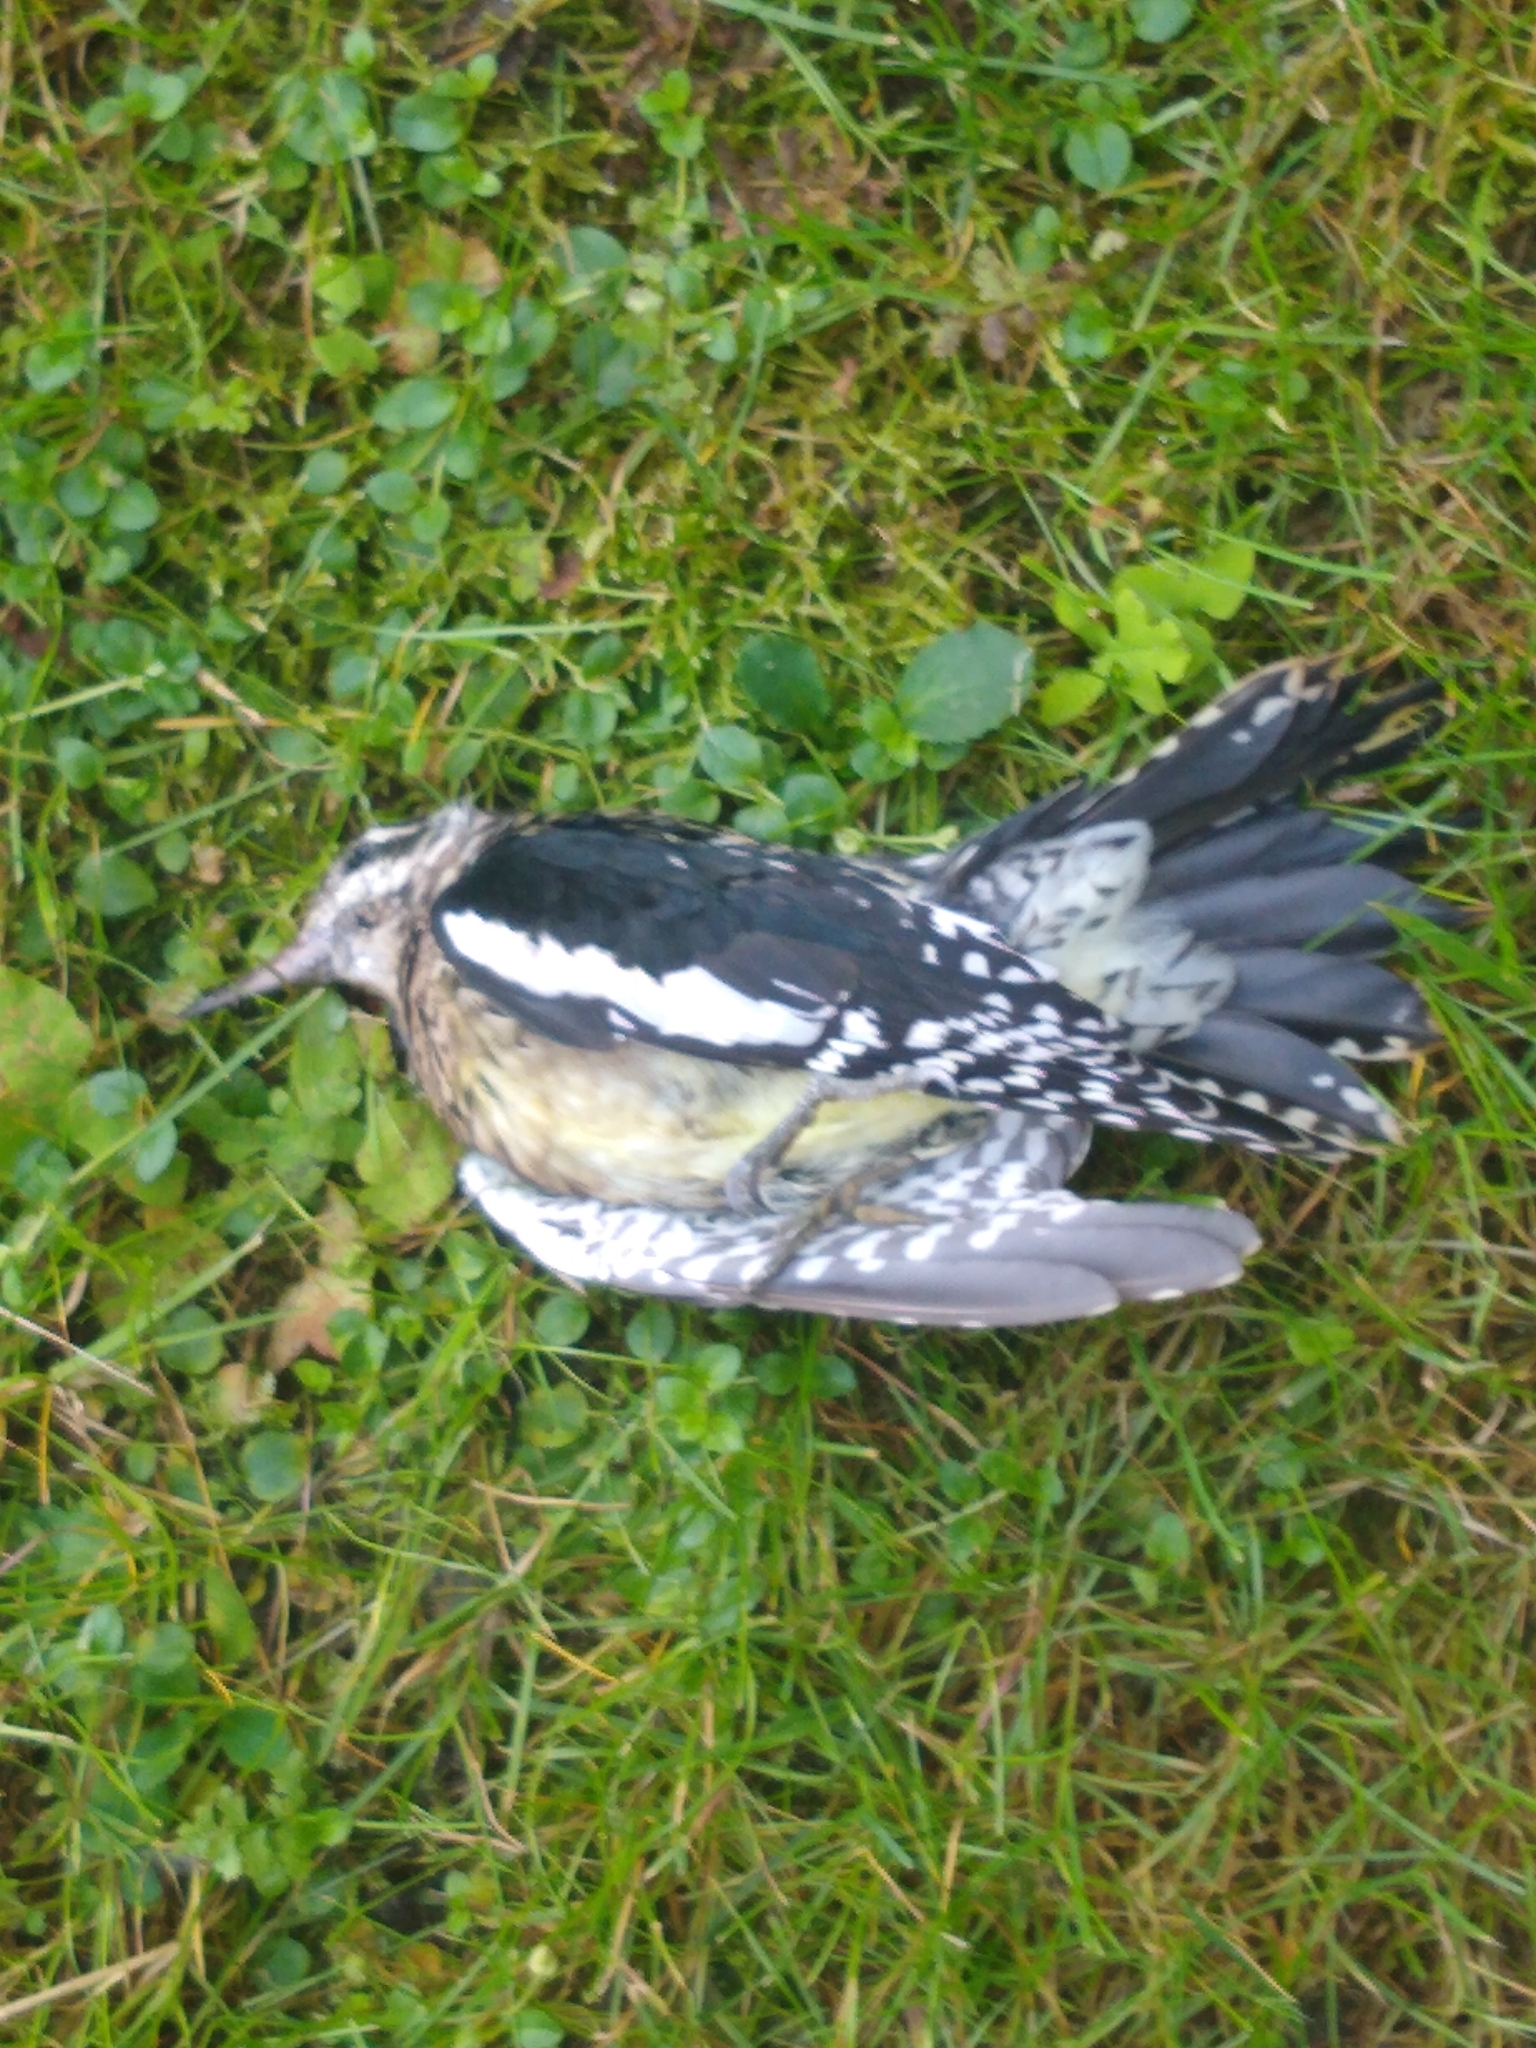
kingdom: Animalia
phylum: Chordata
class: Aves
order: Piciformes
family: Picidae
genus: Sphyrapicus
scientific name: Sphyrapicus varius
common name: Yellow-bellied sapsucker
